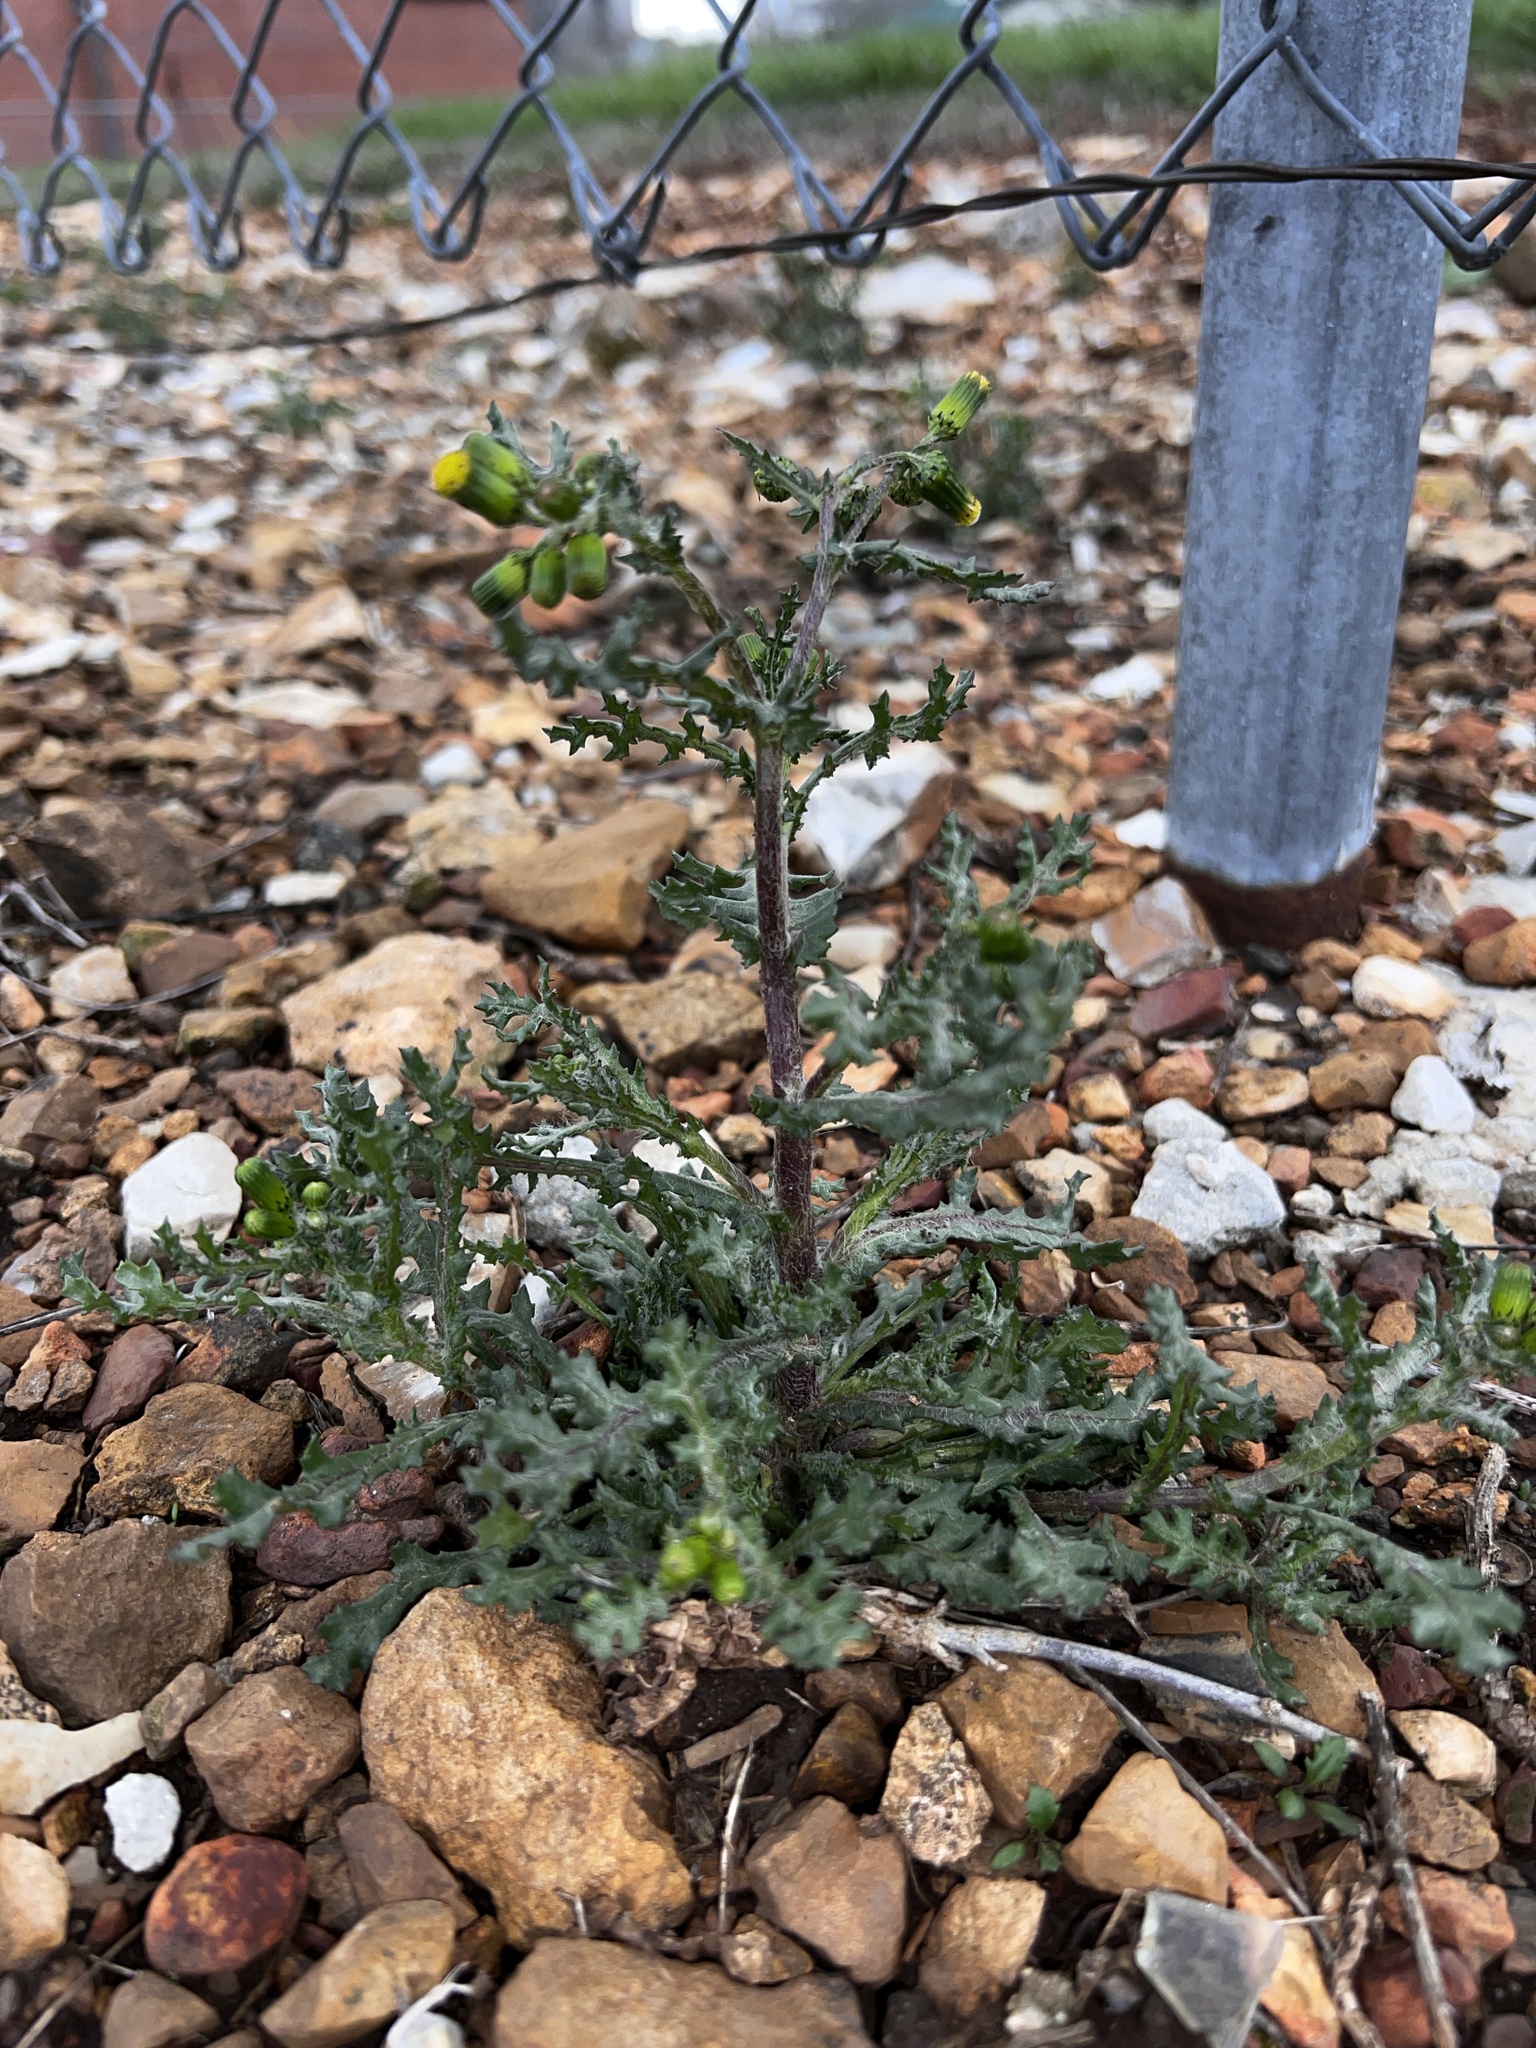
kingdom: Plantae
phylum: Tracheophyta
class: Magnoliopsida
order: Asterales
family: Asteraceae
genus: Senecio
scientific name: Senecio vulgaris
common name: Old-man-in-the-spring
